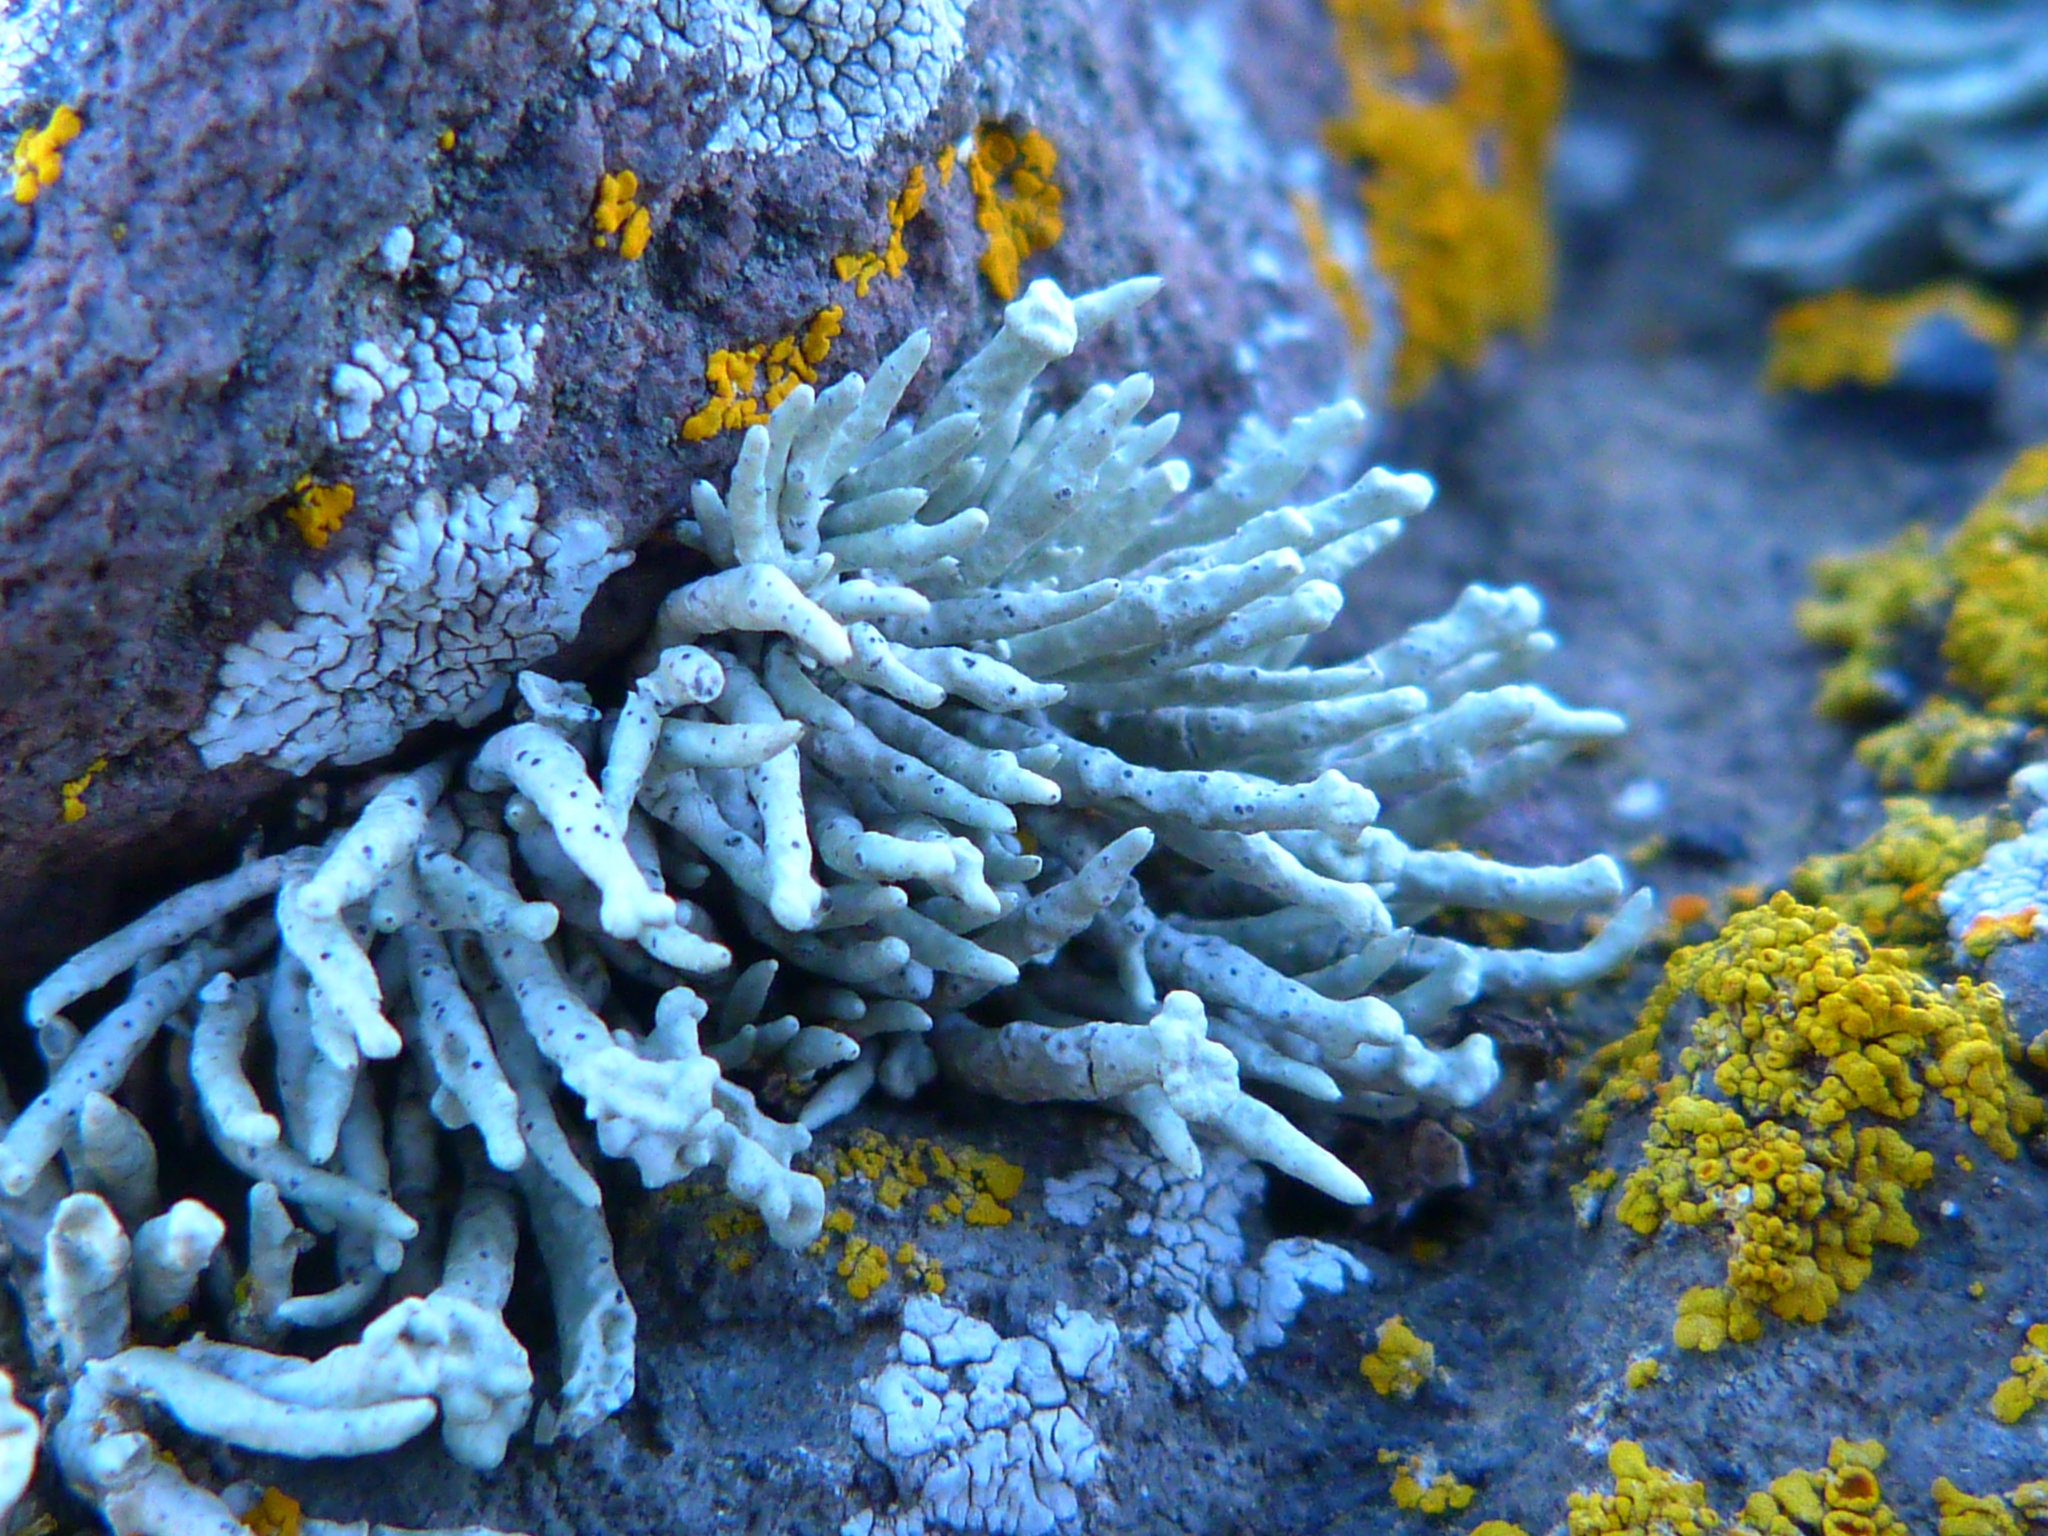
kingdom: Fungi
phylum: Ascomycota
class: Lecanoromycetes
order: Lecanorales
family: Ramalinaceae
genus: Niebla
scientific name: Niebla combeoides
